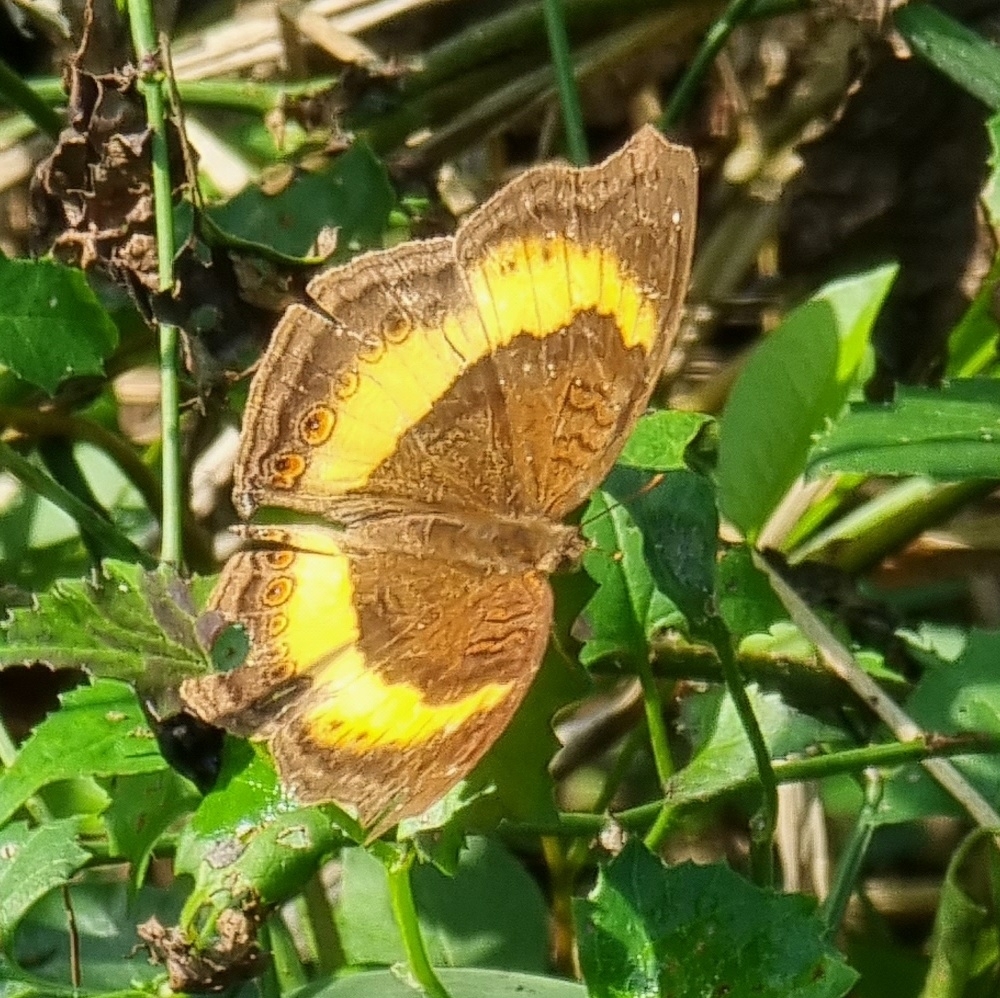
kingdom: Animalia
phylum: Arthropoda
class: Insecta
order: Lepidoptera
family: Nymphalidae
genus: Junonia
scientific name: Junonia terea
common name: Soldier pansy
